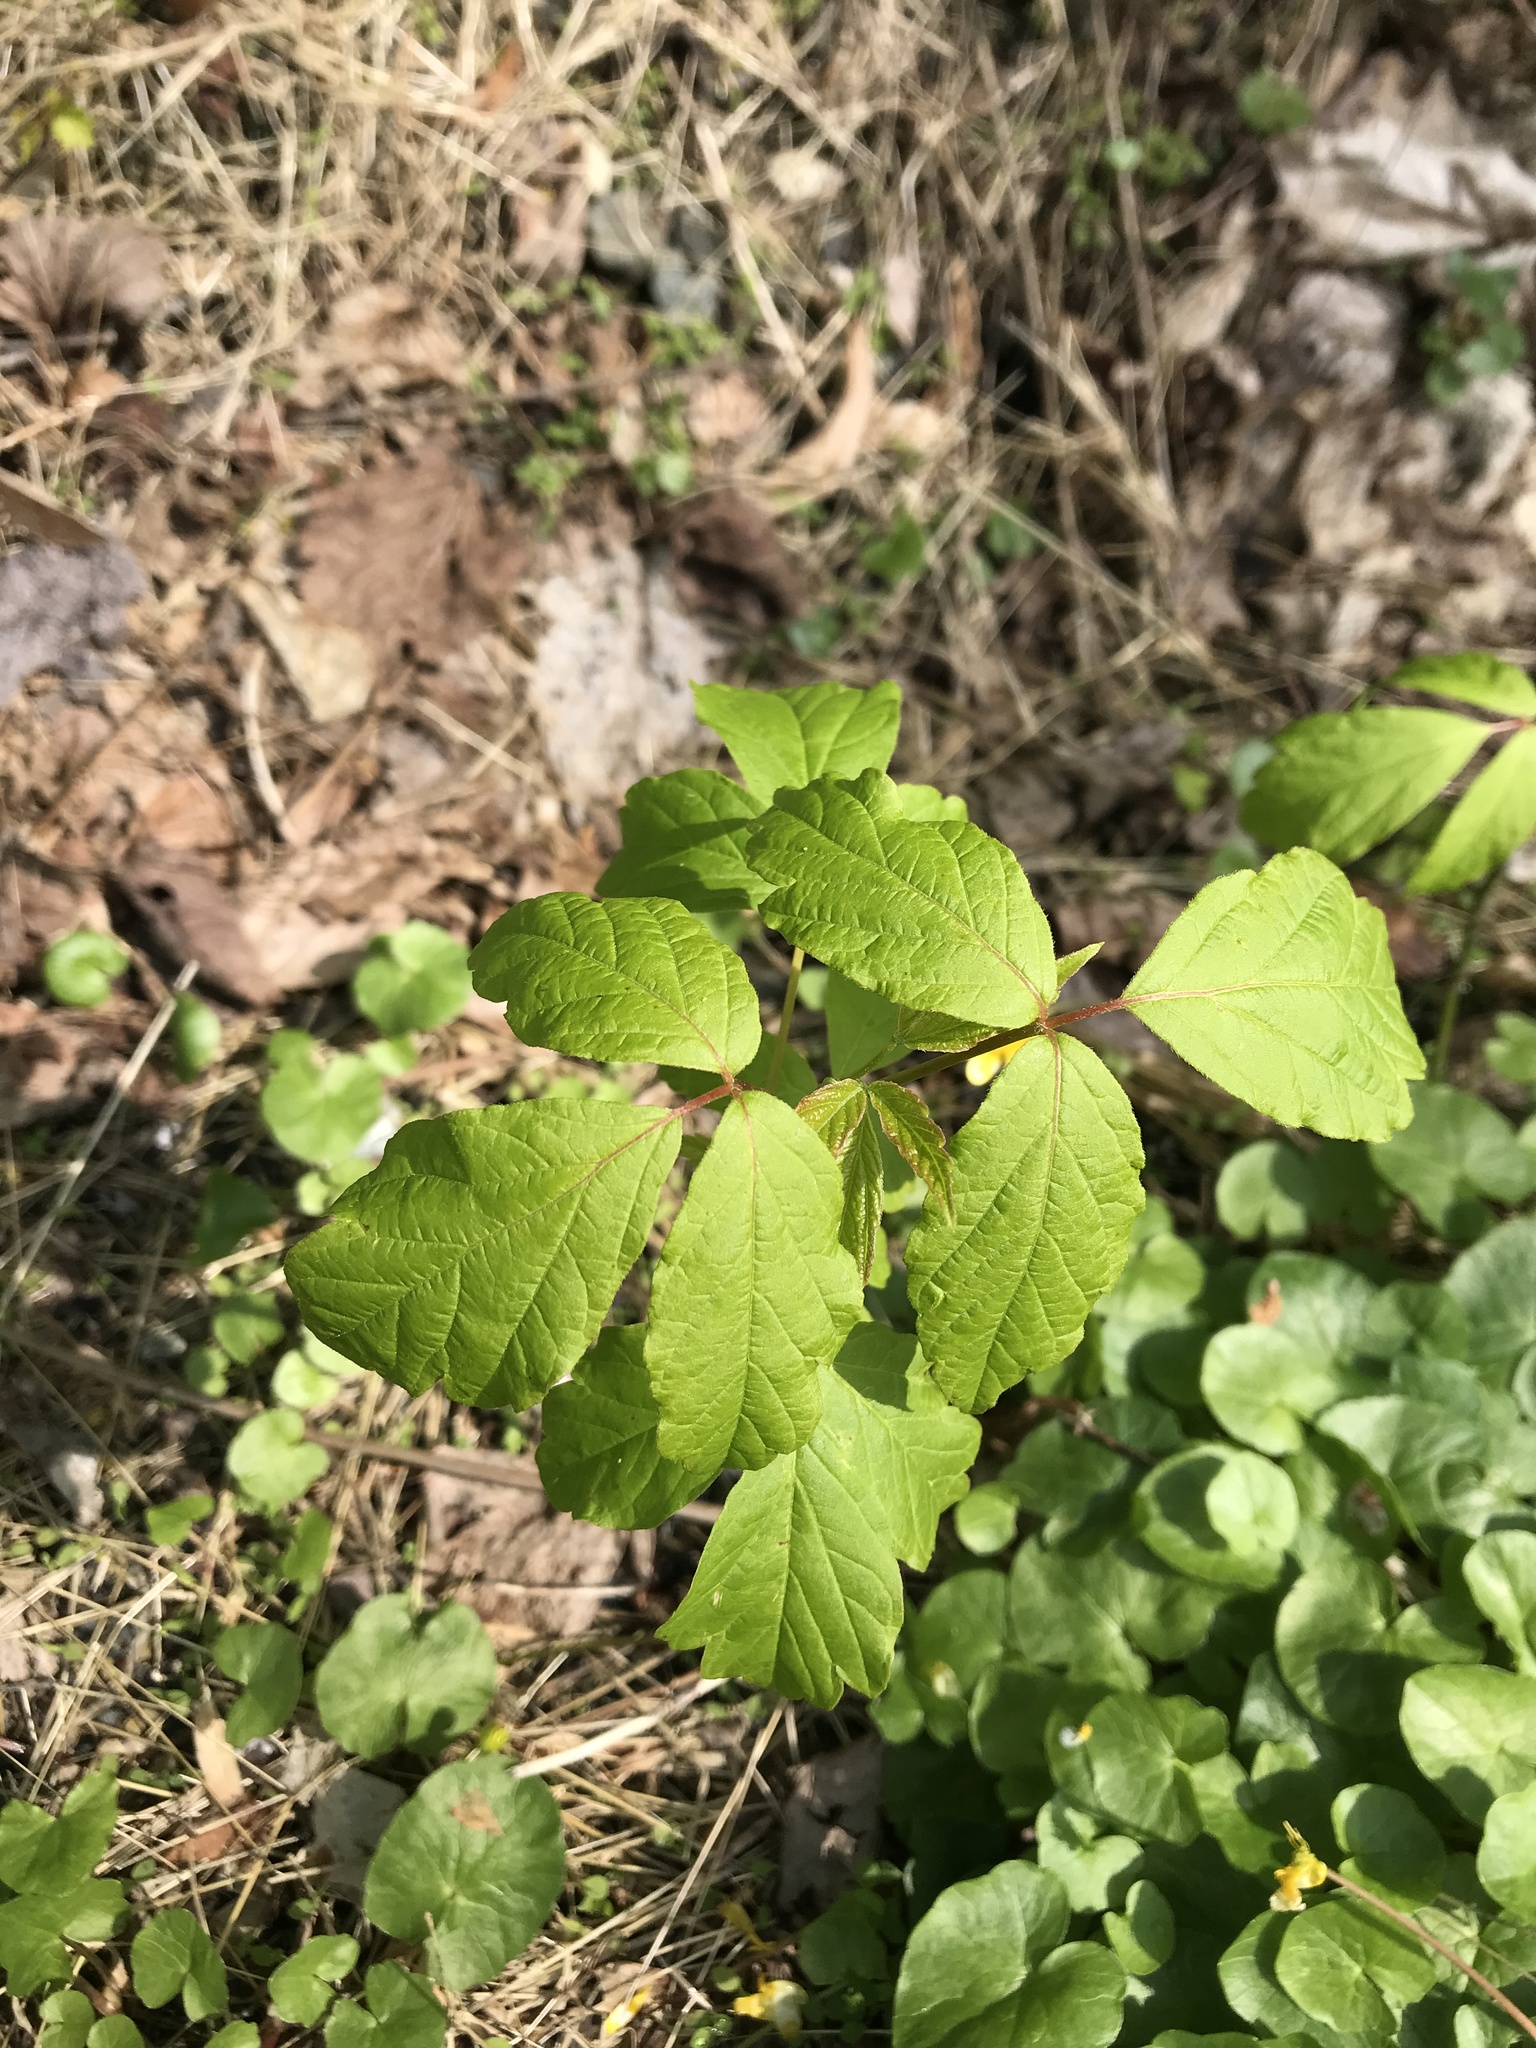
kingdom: Plantae
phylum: Tracheophyta
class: Magnoliopsida
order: Sapindales
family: Sapindaceae
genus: Acer
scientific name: Acer negundo
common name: Ashleaf maple
